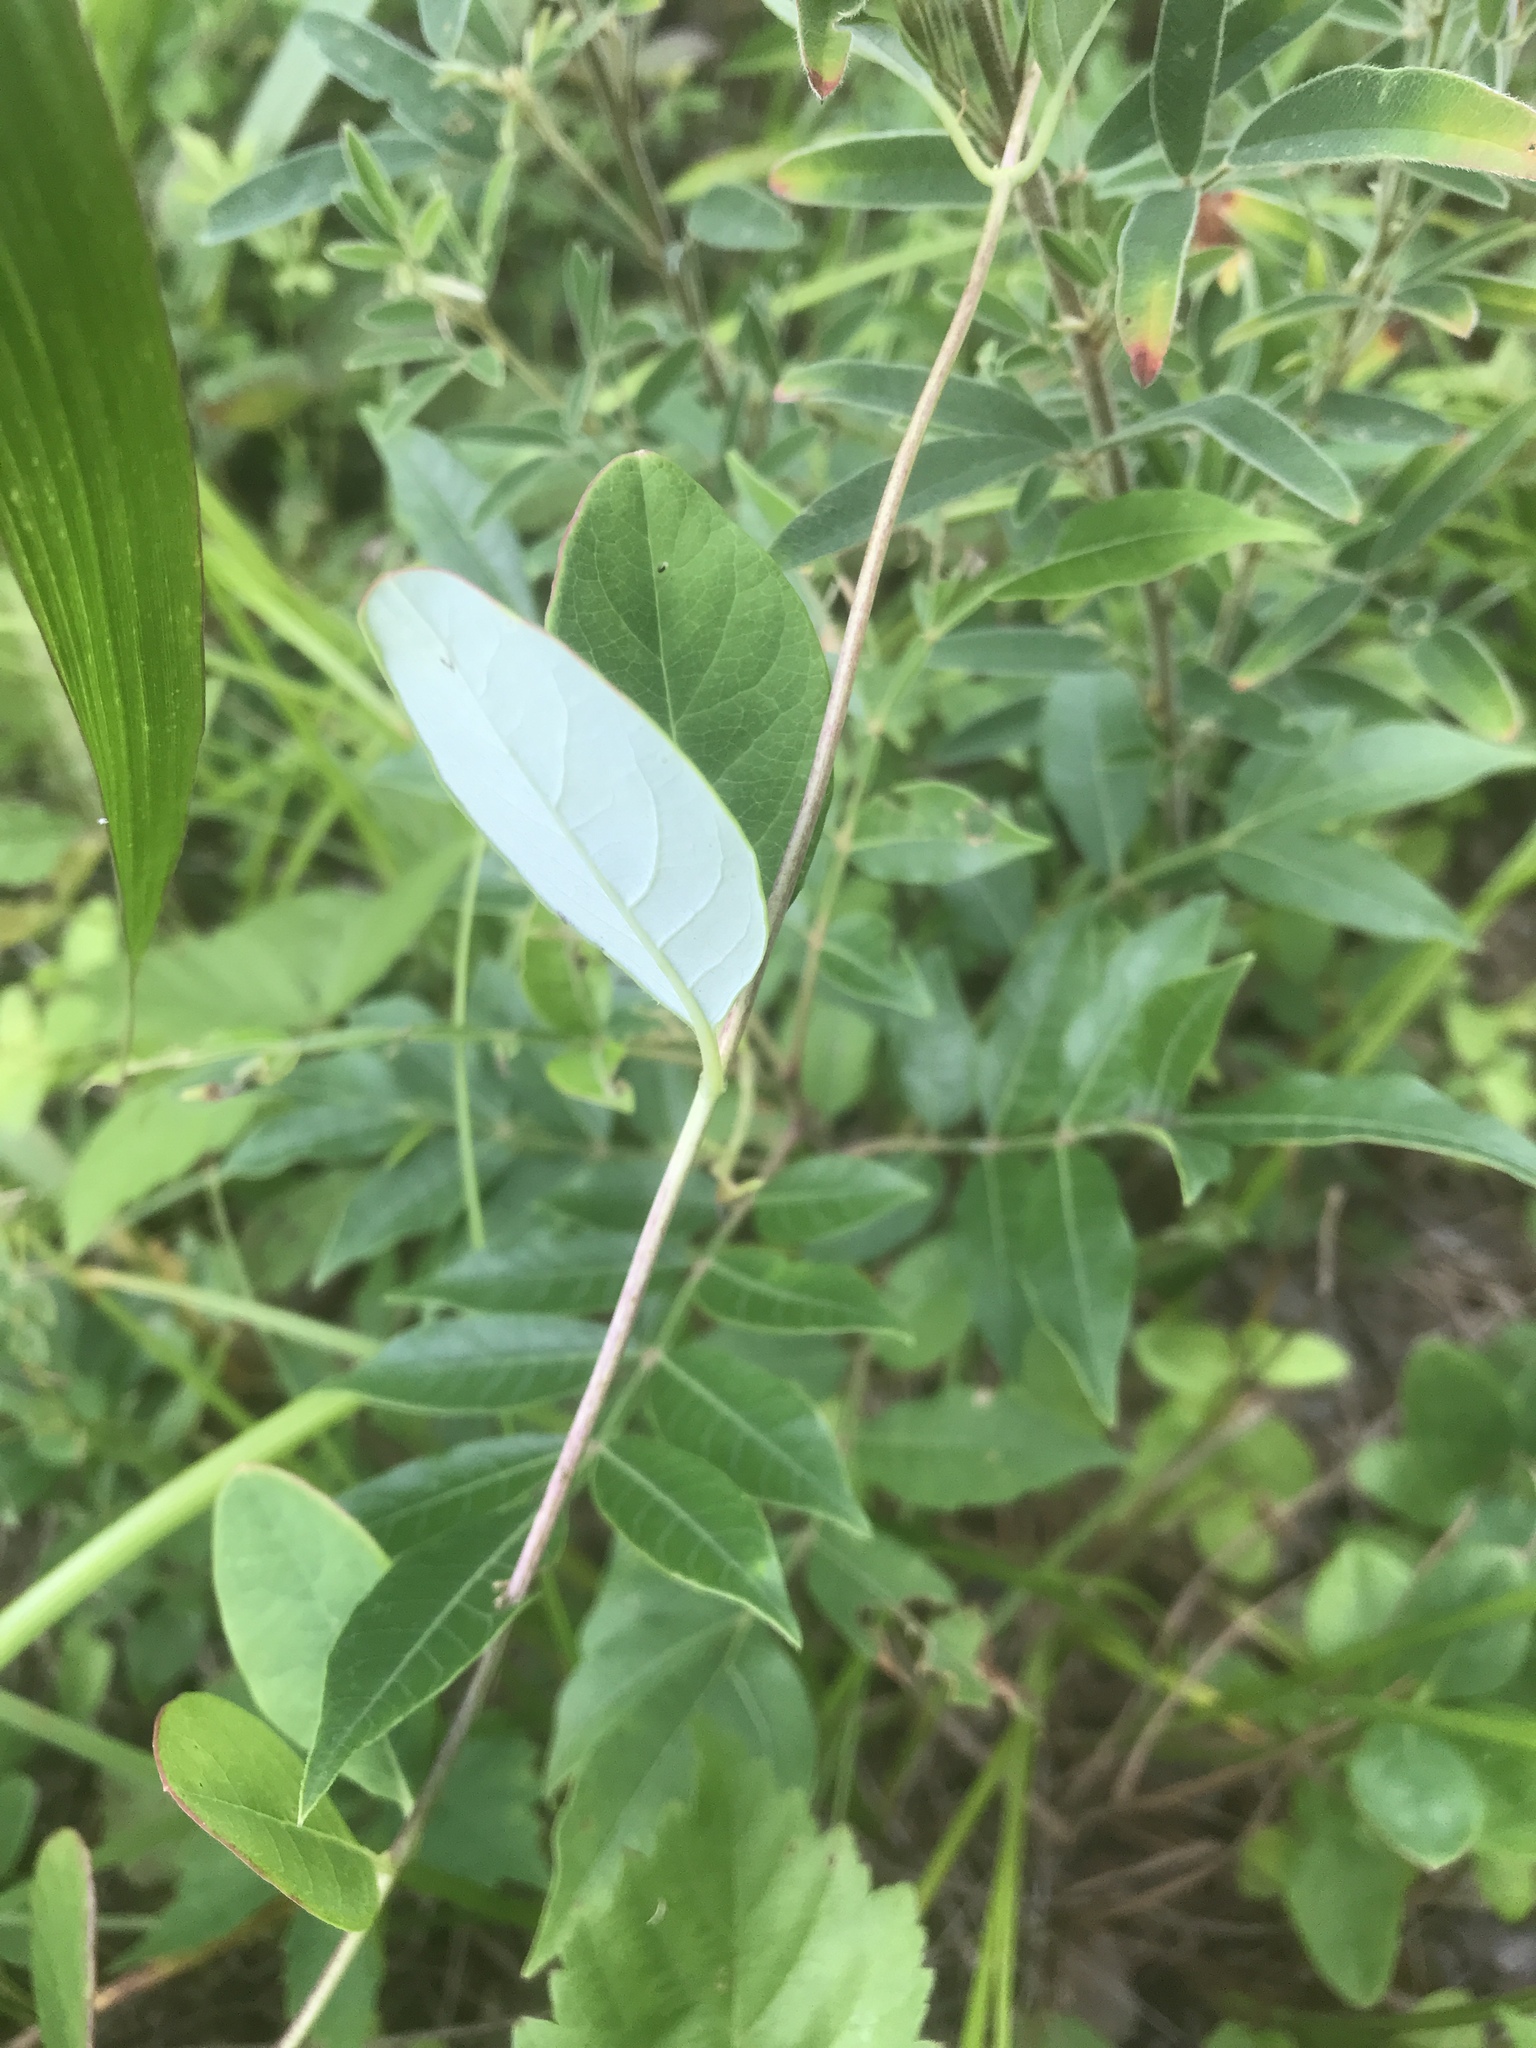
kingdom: Plantae
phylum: Tracheophyta
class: Magnoliopsida
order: Dipsacales
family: Caprifoliaceae
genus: Lonicera
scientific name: Lonicera sempervirens
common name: Coral honeysuckle
